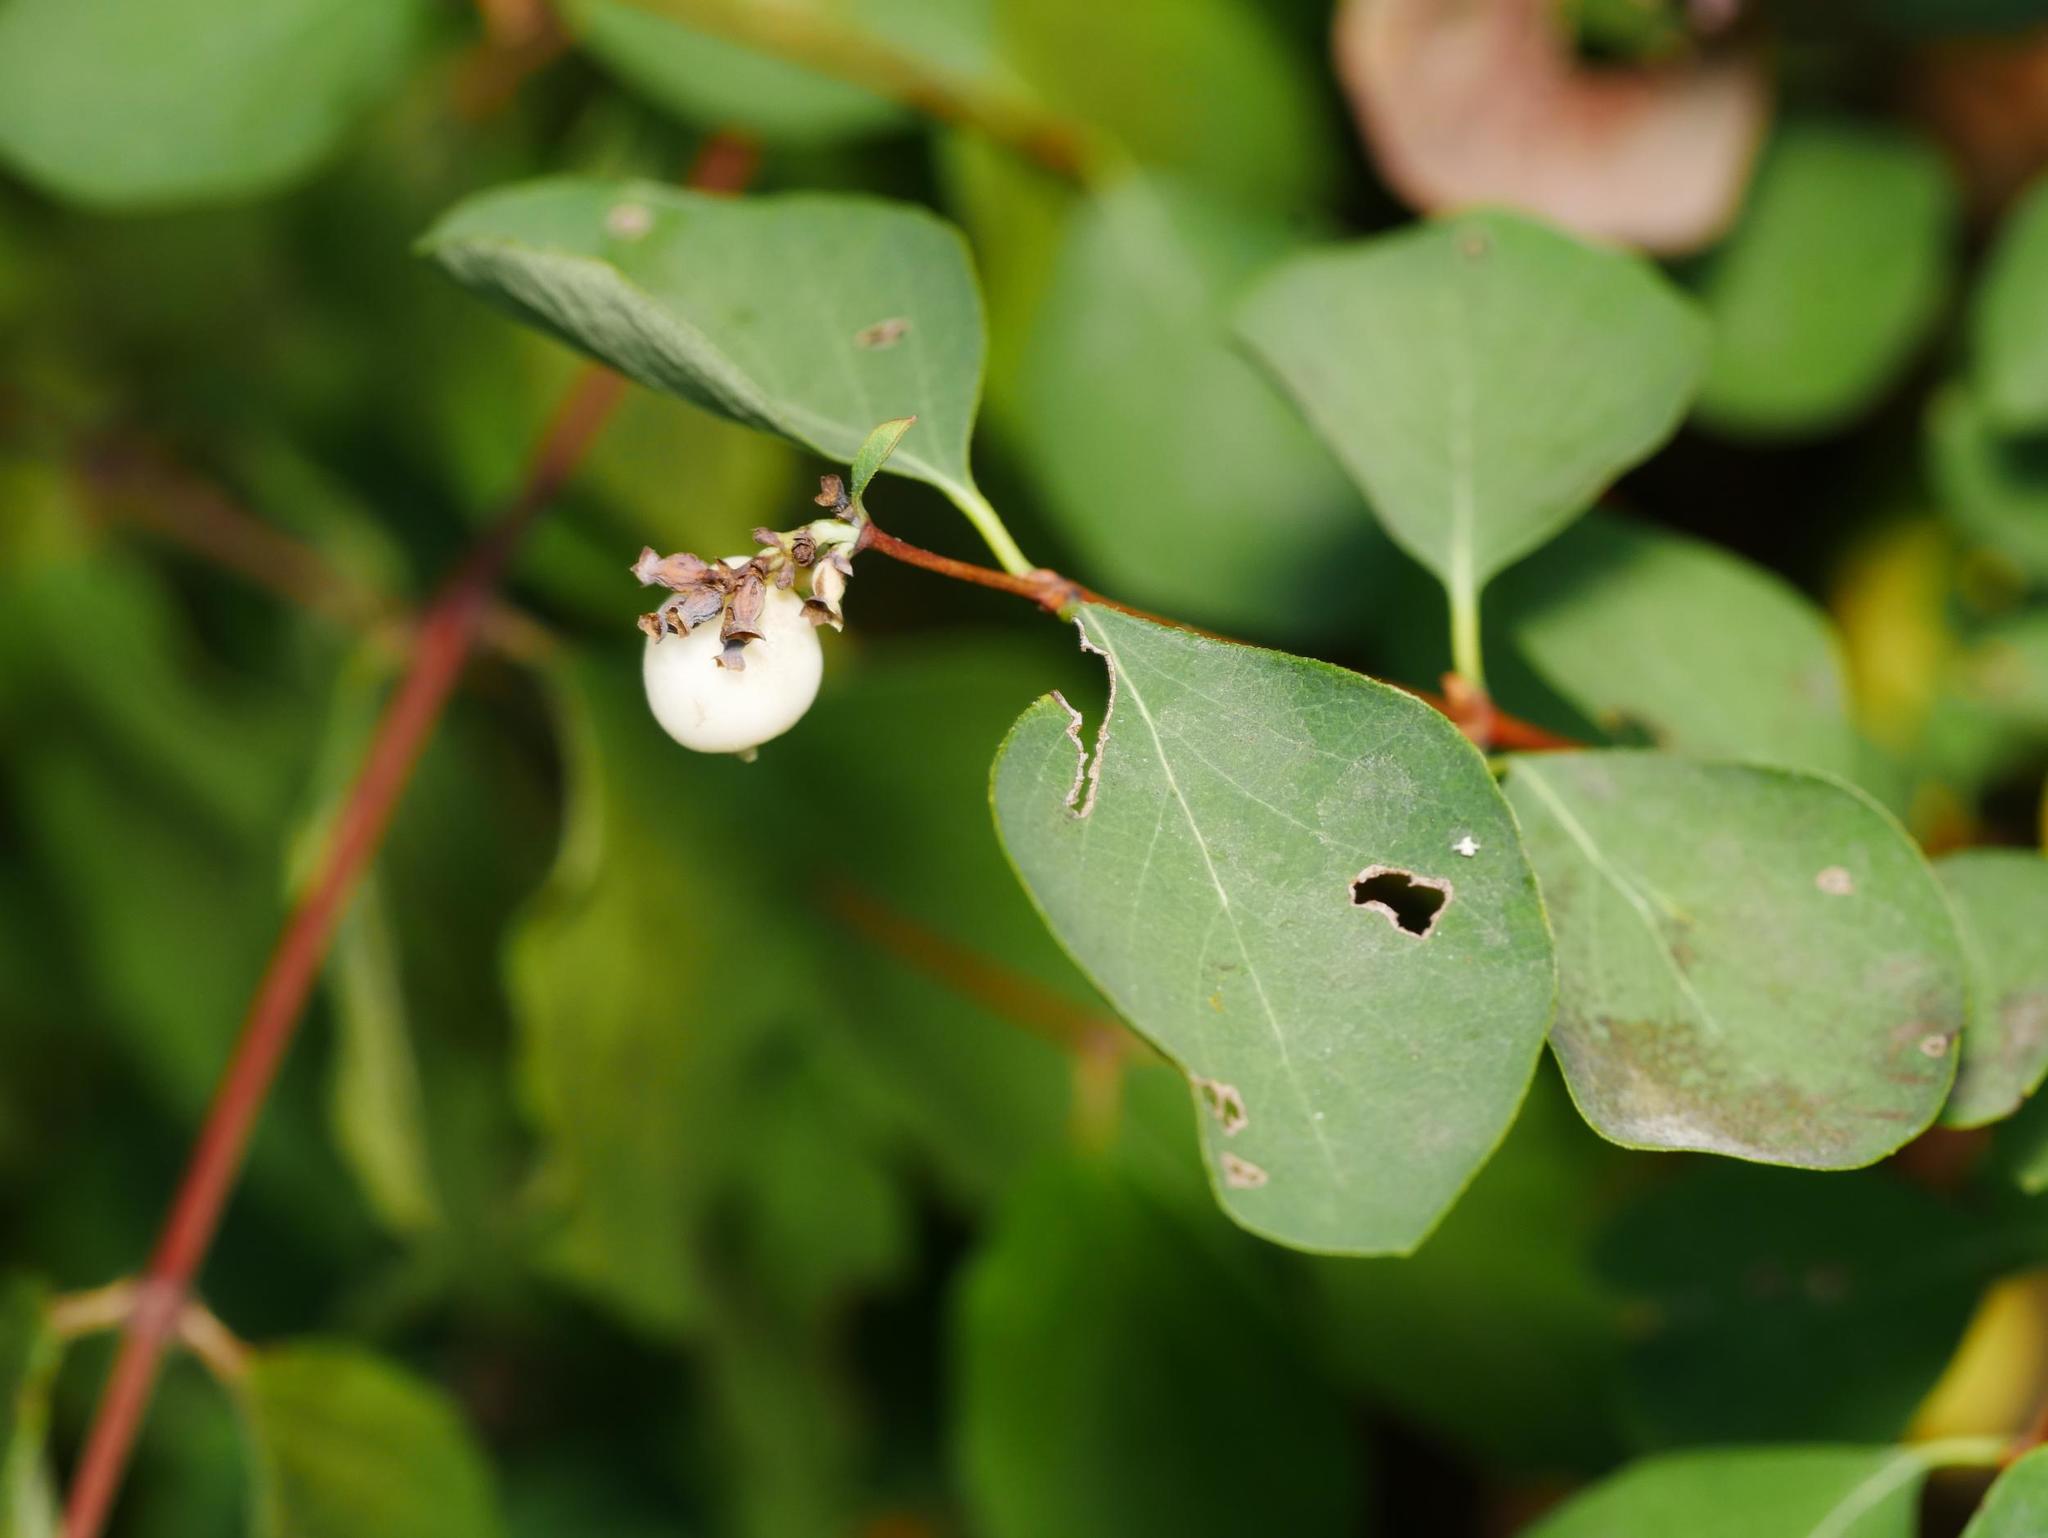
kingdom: Plantae
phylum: Tracheophyta
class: Magnoliopsida
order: Dipsacales
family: Caprifoliaceae
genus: Symphoricarpos
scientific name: Symphoricarpos albus
